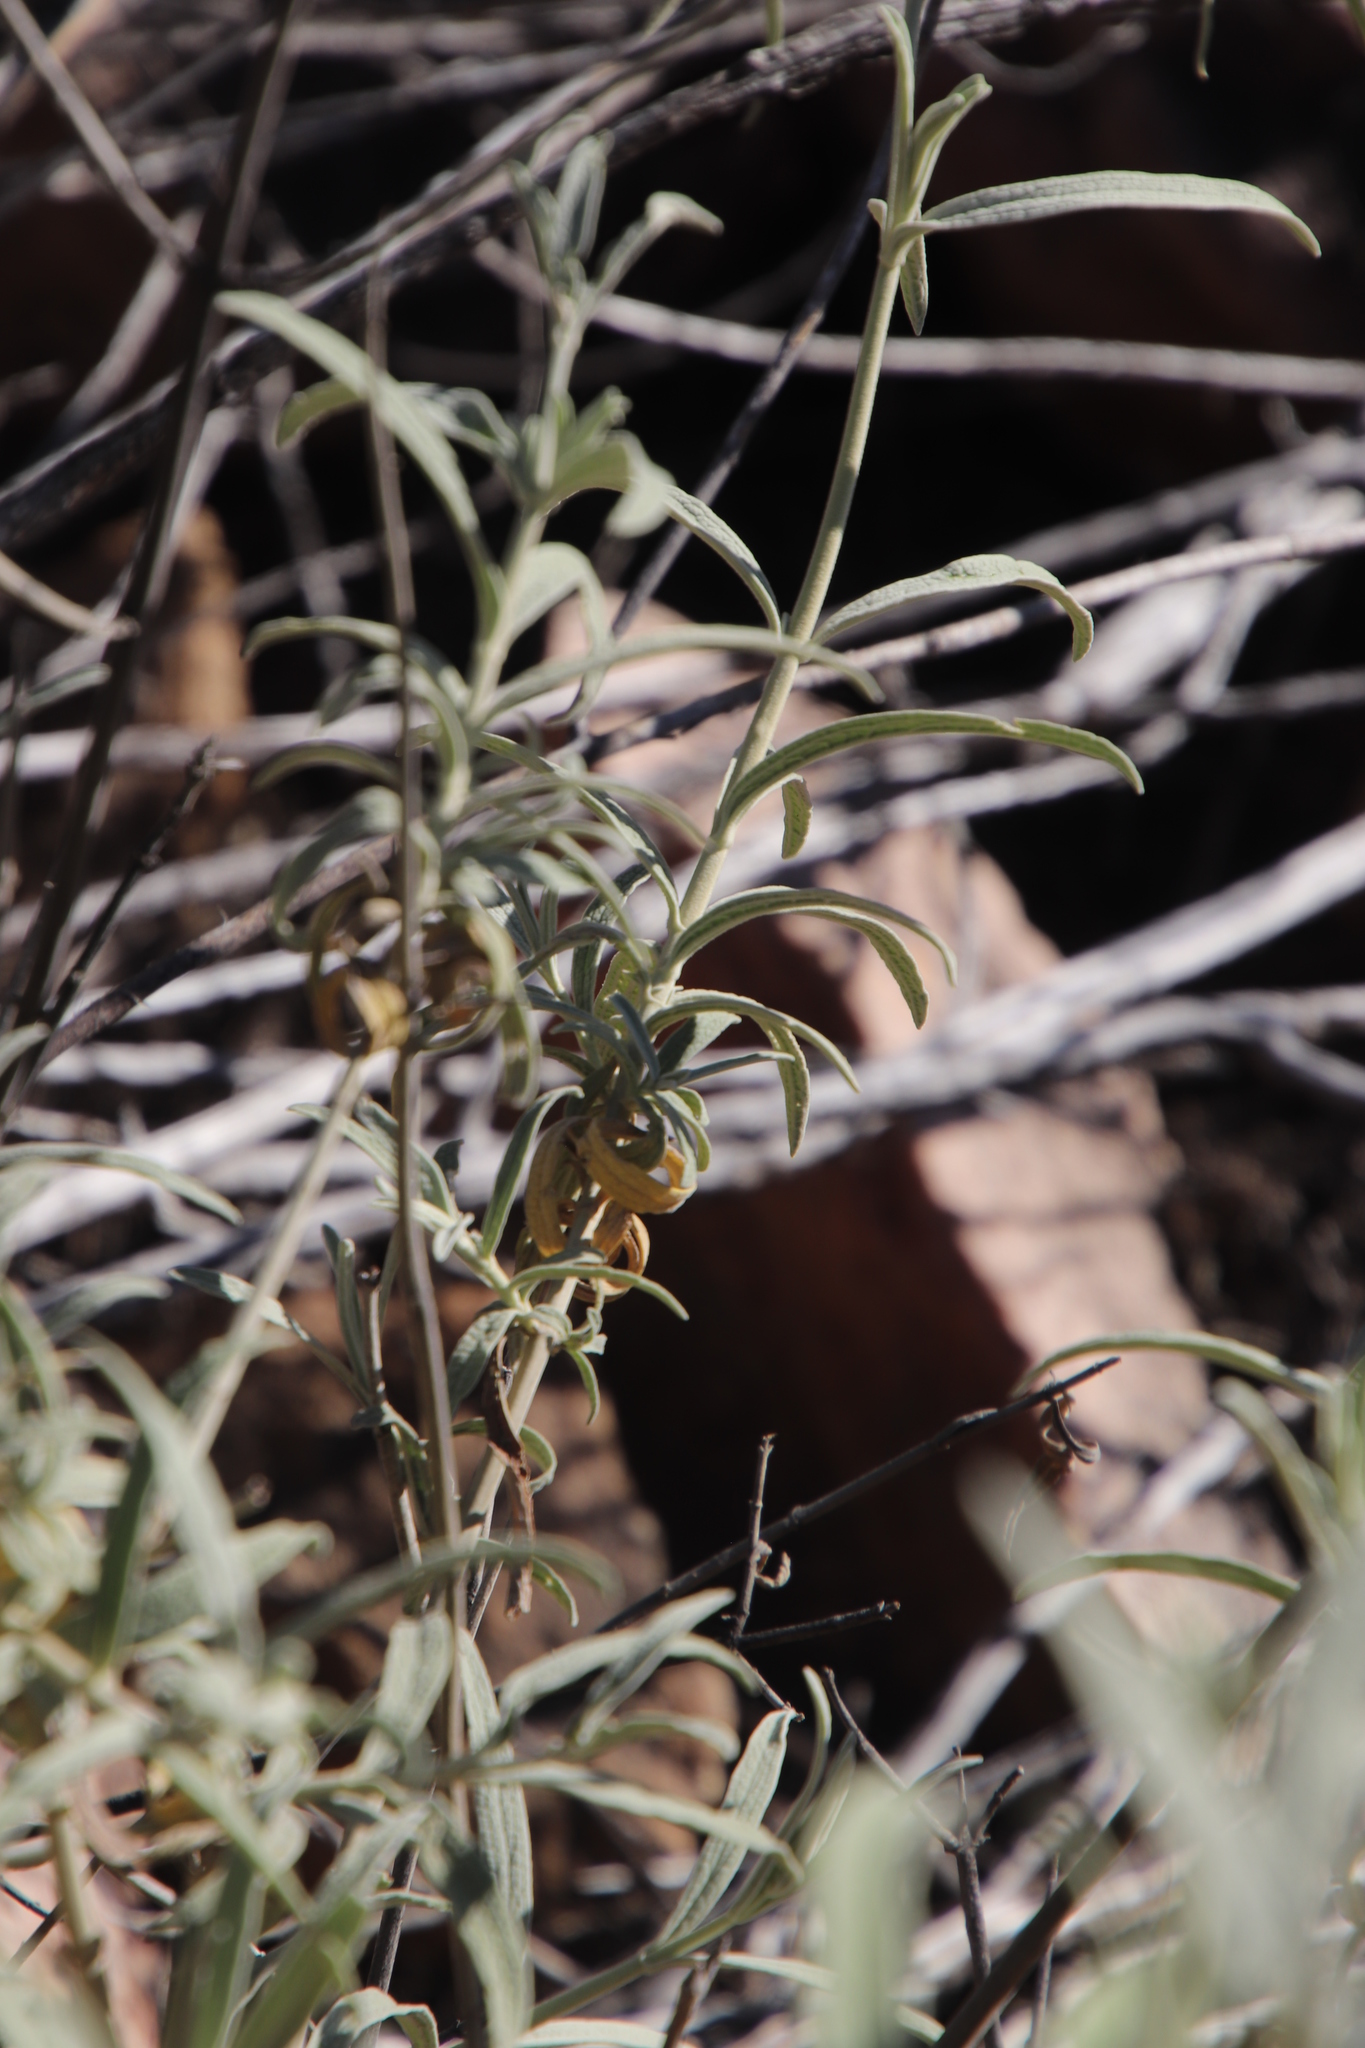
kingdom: Plantae
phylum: Tracheophyta
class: Magnoliopsida
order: Lamiales
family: Lamiaceae
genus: Stachys
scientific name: Stachys linearis
